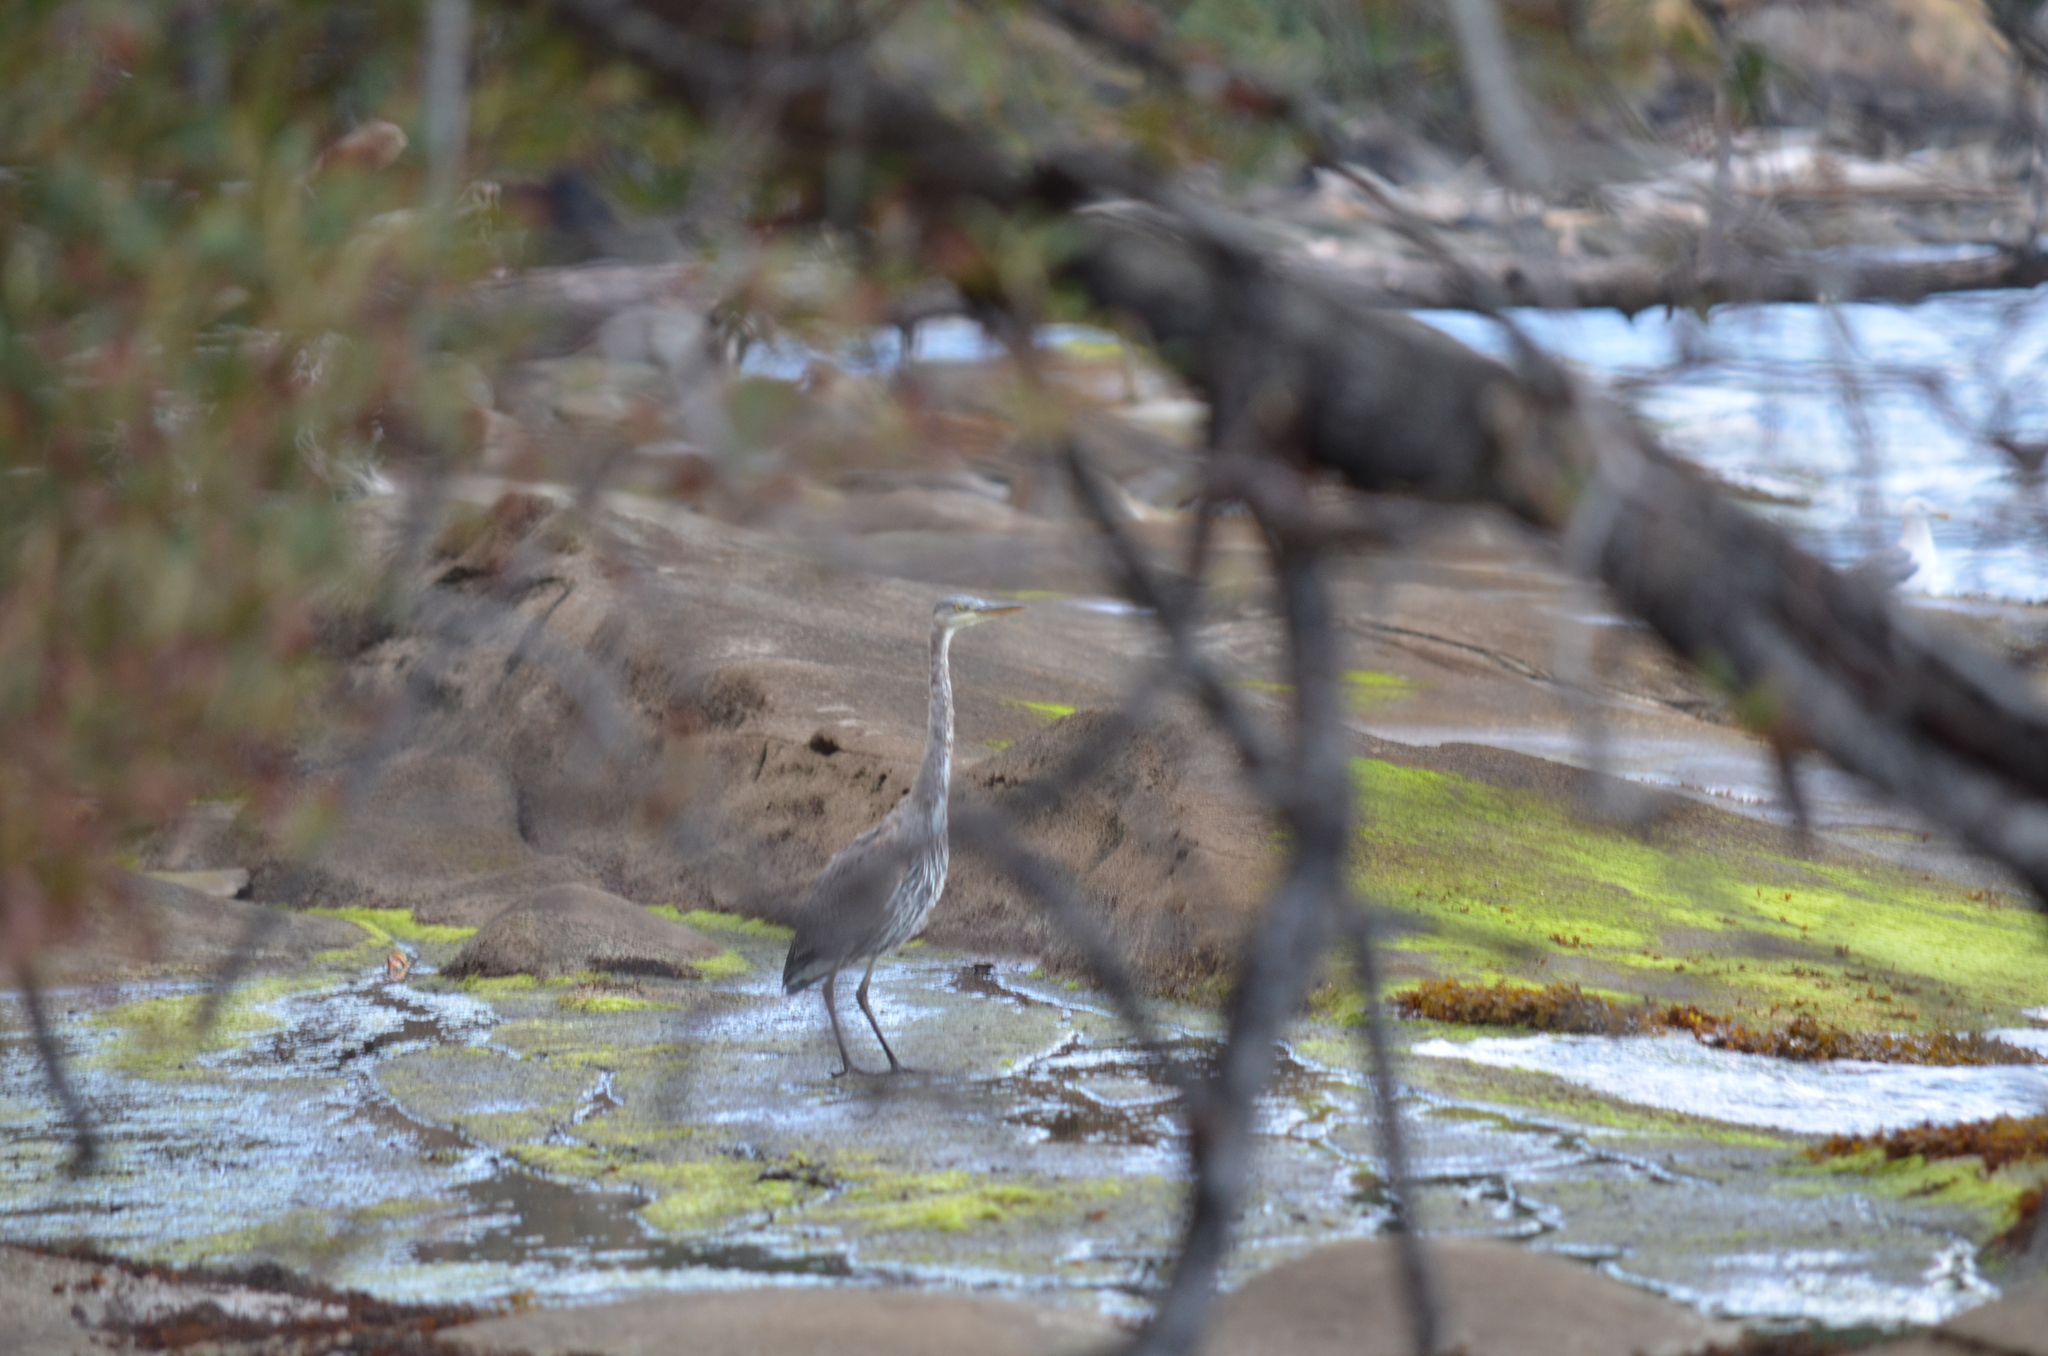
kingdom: Animalia
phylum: Chordata
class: Aves
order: Pelecaniformes
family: Ardeidae
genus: Ardea
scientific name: Ardea herodias
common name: Great blue heron
